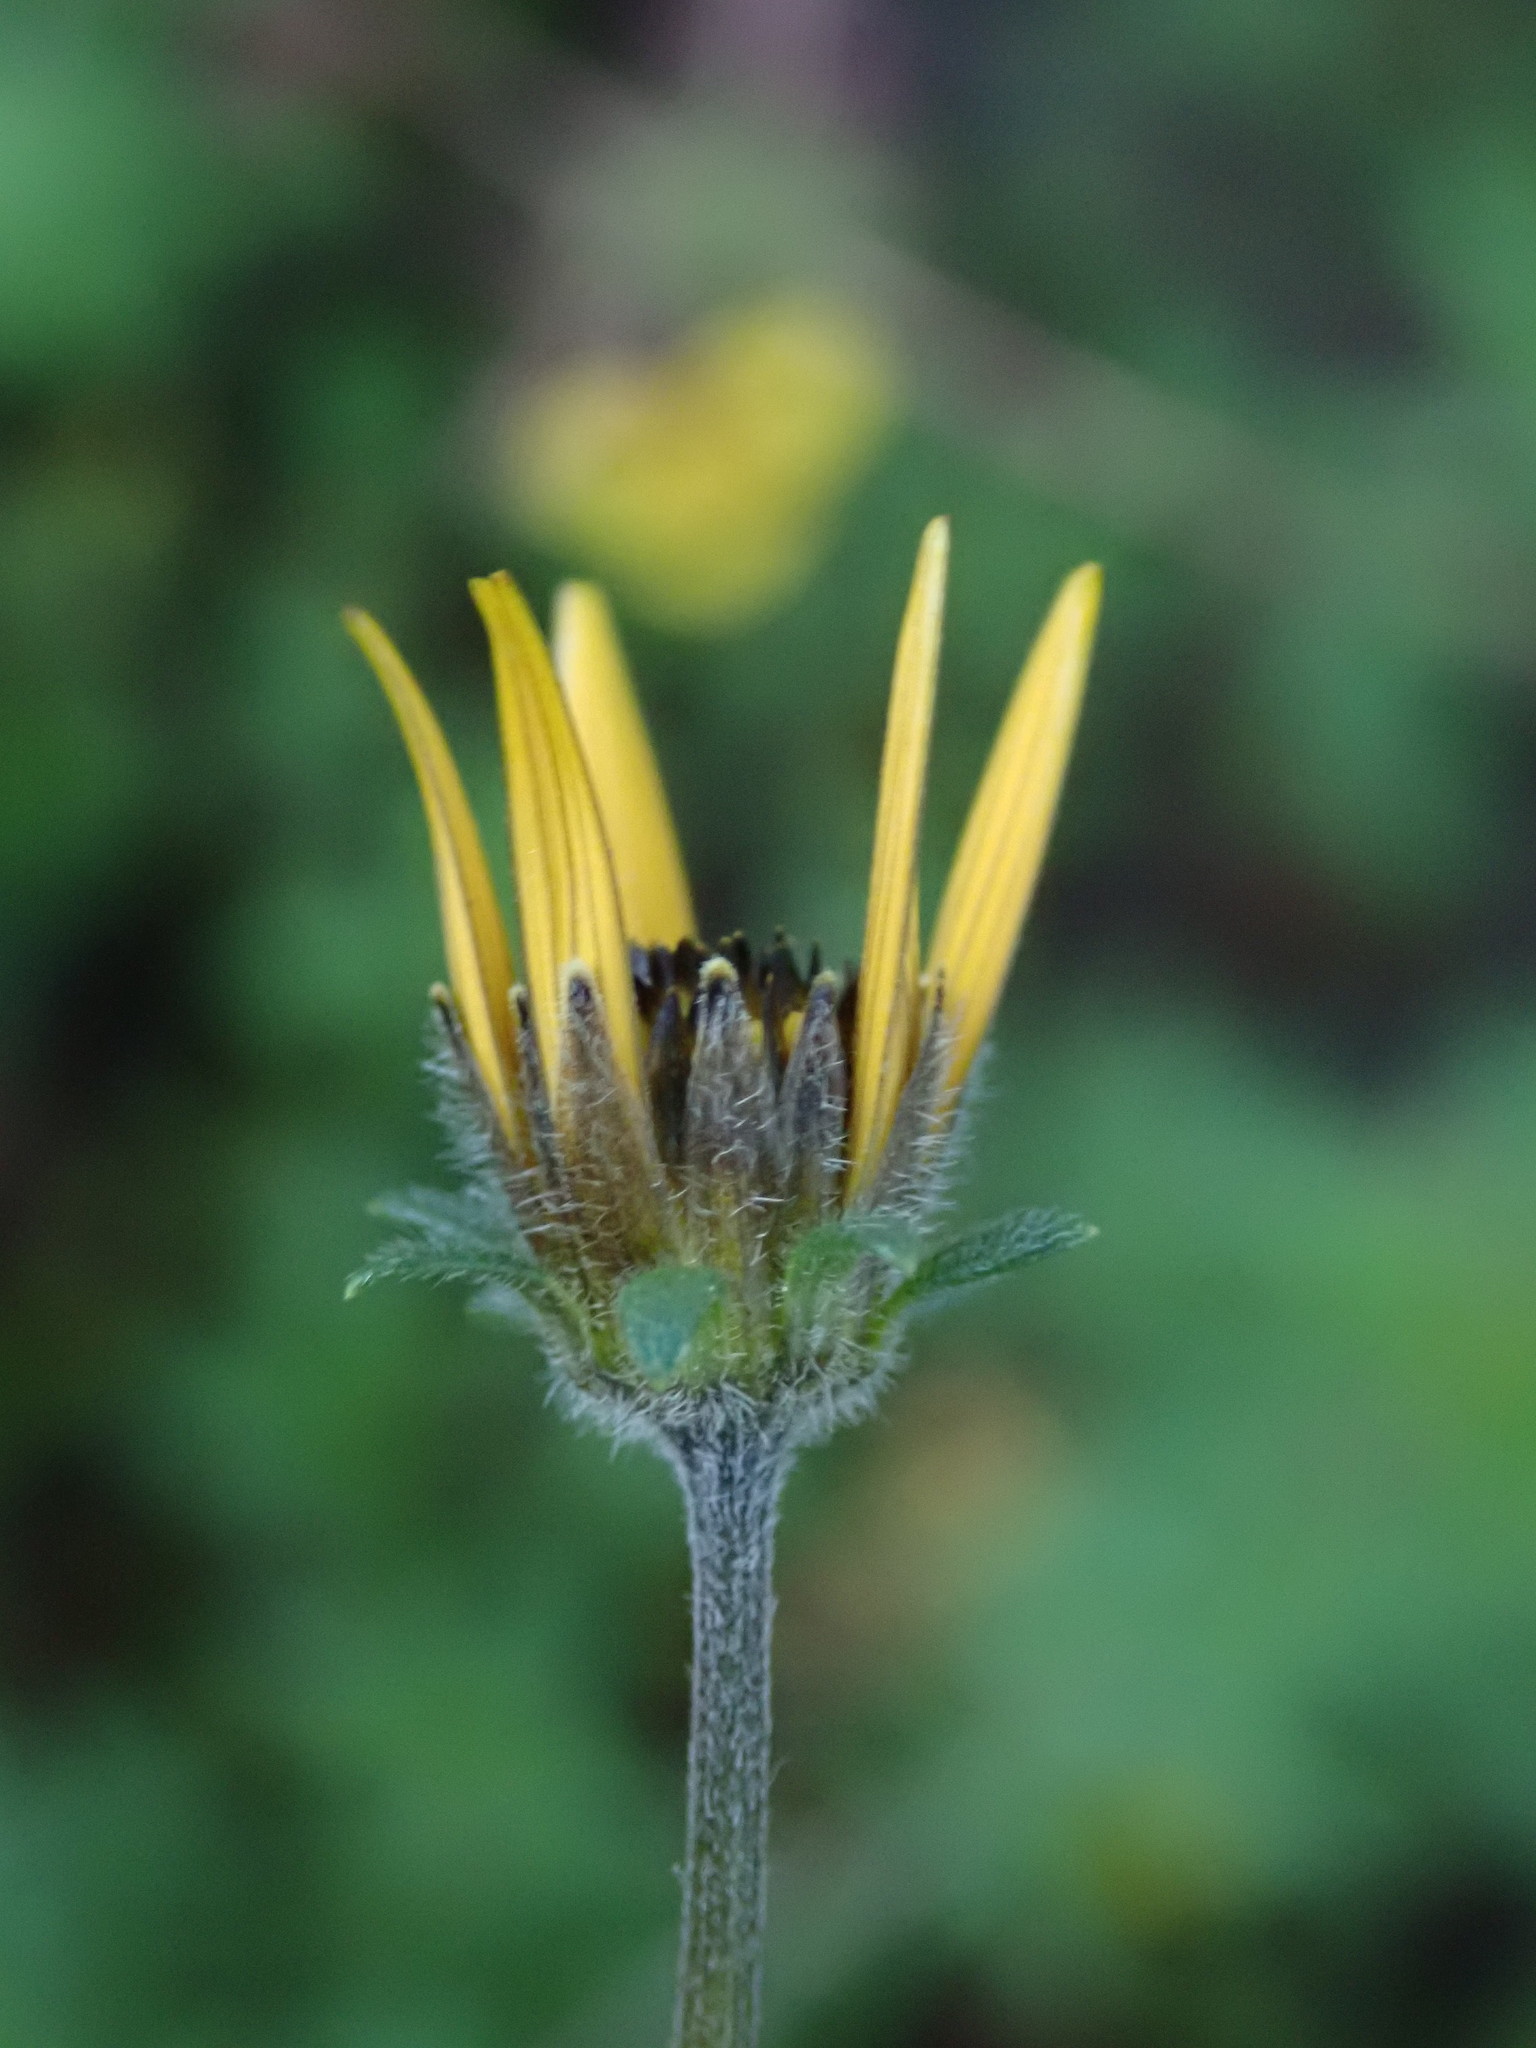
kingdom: Plantae
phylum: Tracheophyta
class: Magnoliopsida
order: Asterales
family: Asteraceae
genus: Bidens
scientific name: Bidens triplinervia
